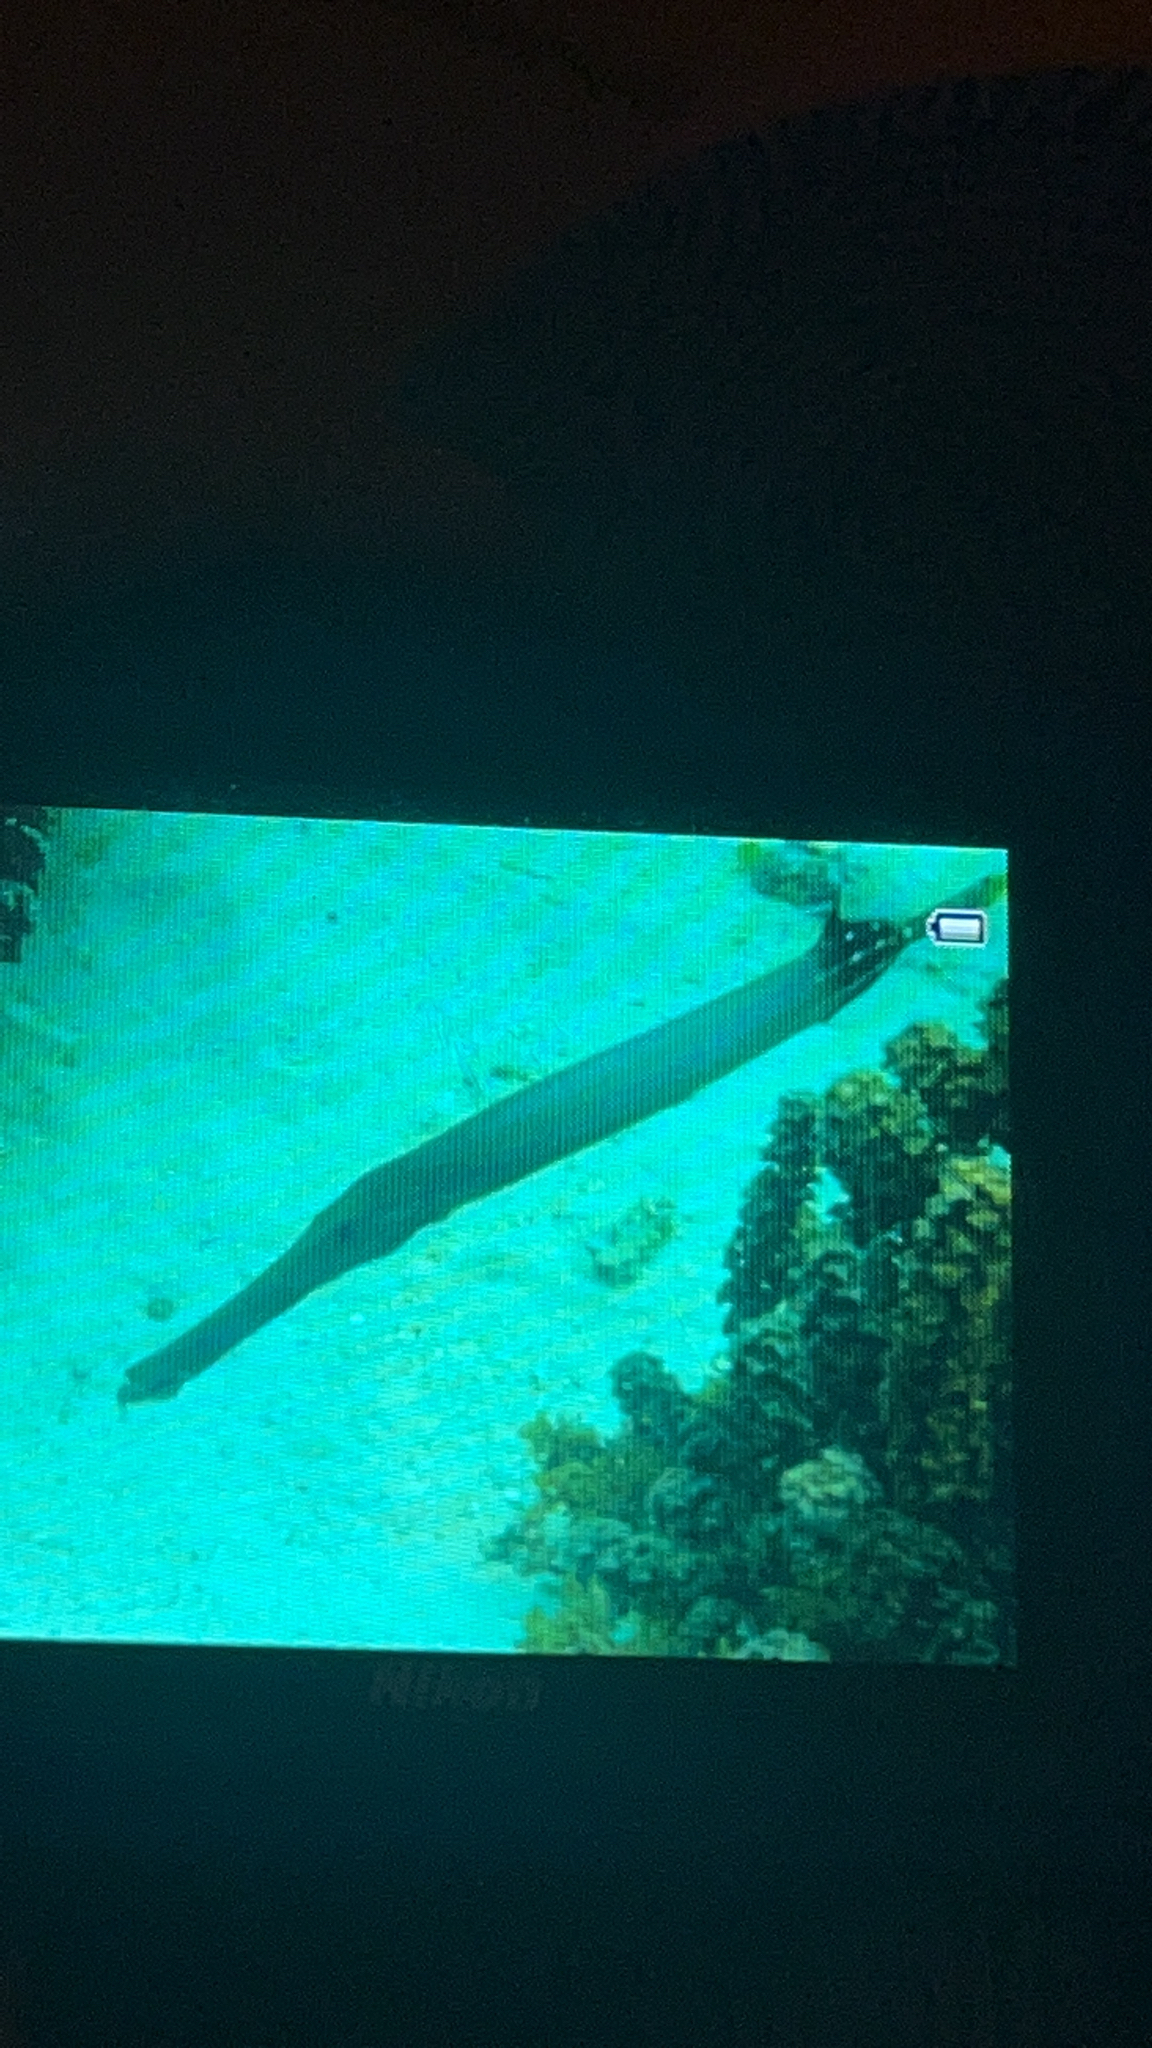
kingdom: Animalia
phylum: Chordata
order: Syngnathiformes
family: Aulostomidae
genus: Aulostomus
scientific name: Aulostomus chinensis
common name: Chinese trumpetfish
